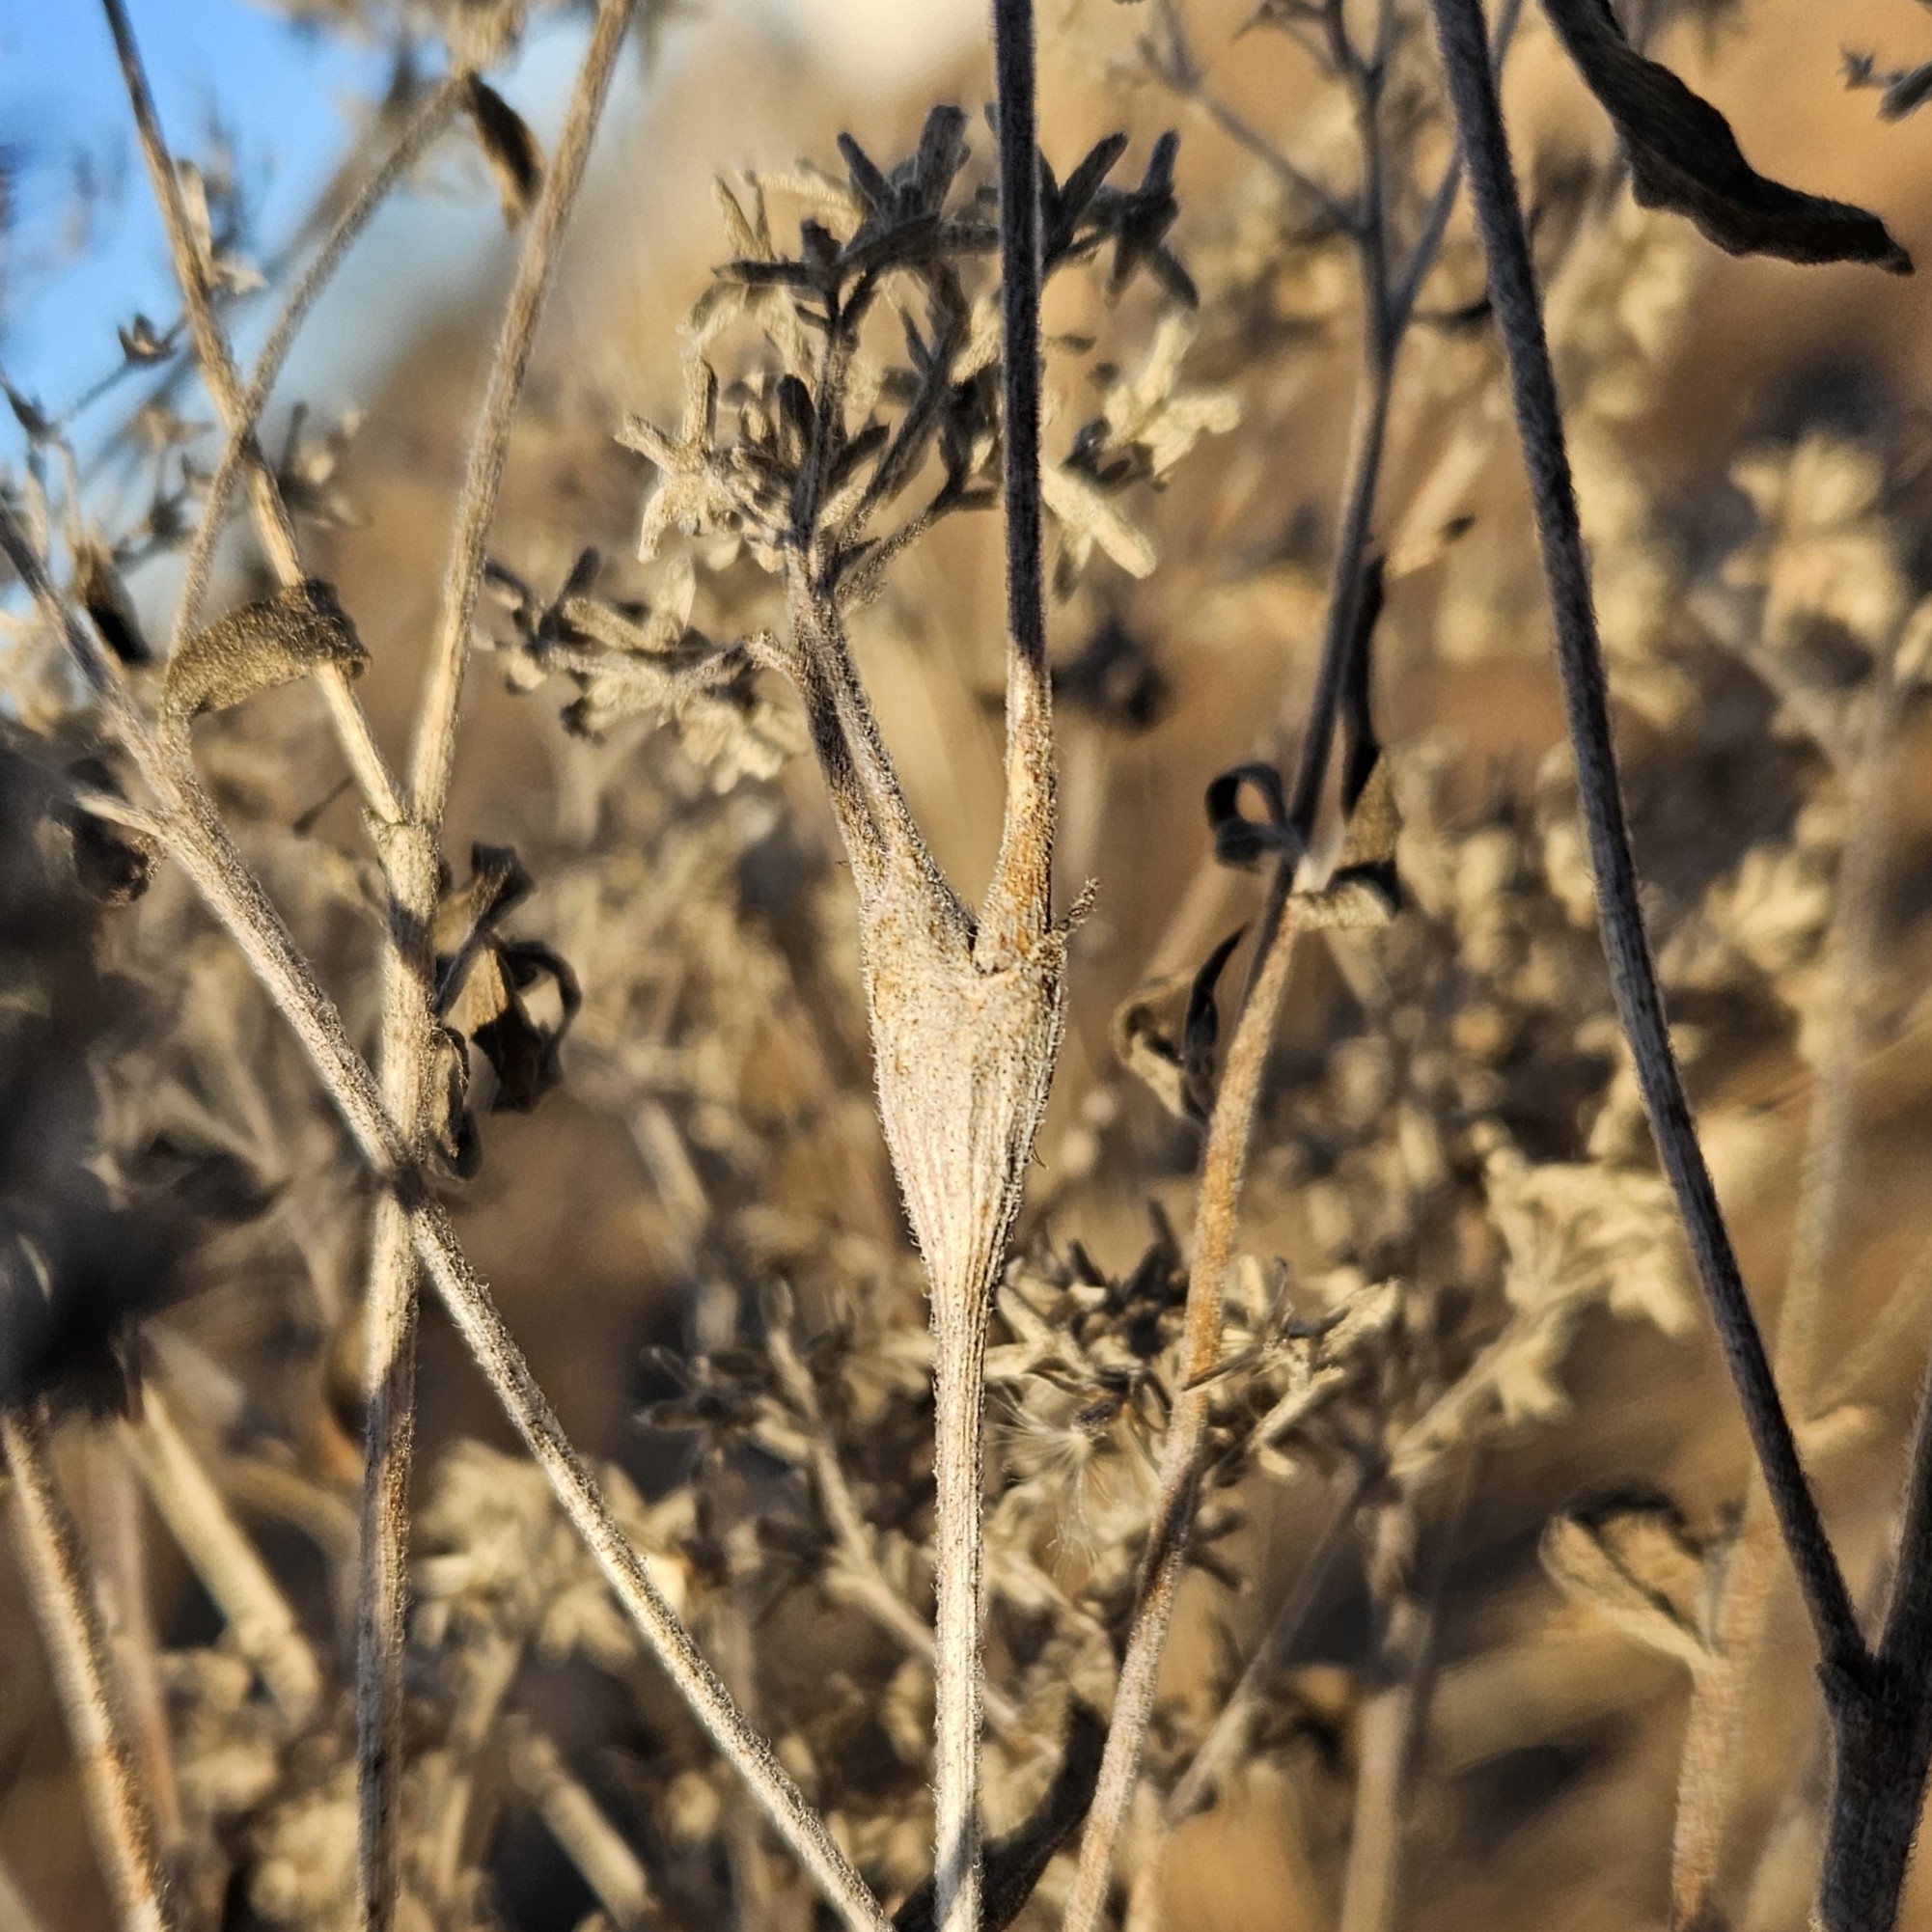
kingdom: Animalia
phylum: Arthropoda
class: Insecta
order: Diptera
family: Cecidomyiidae
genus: Neolasioptera
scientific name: Neolasioptera perfoliata
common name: Boneset stem midge
